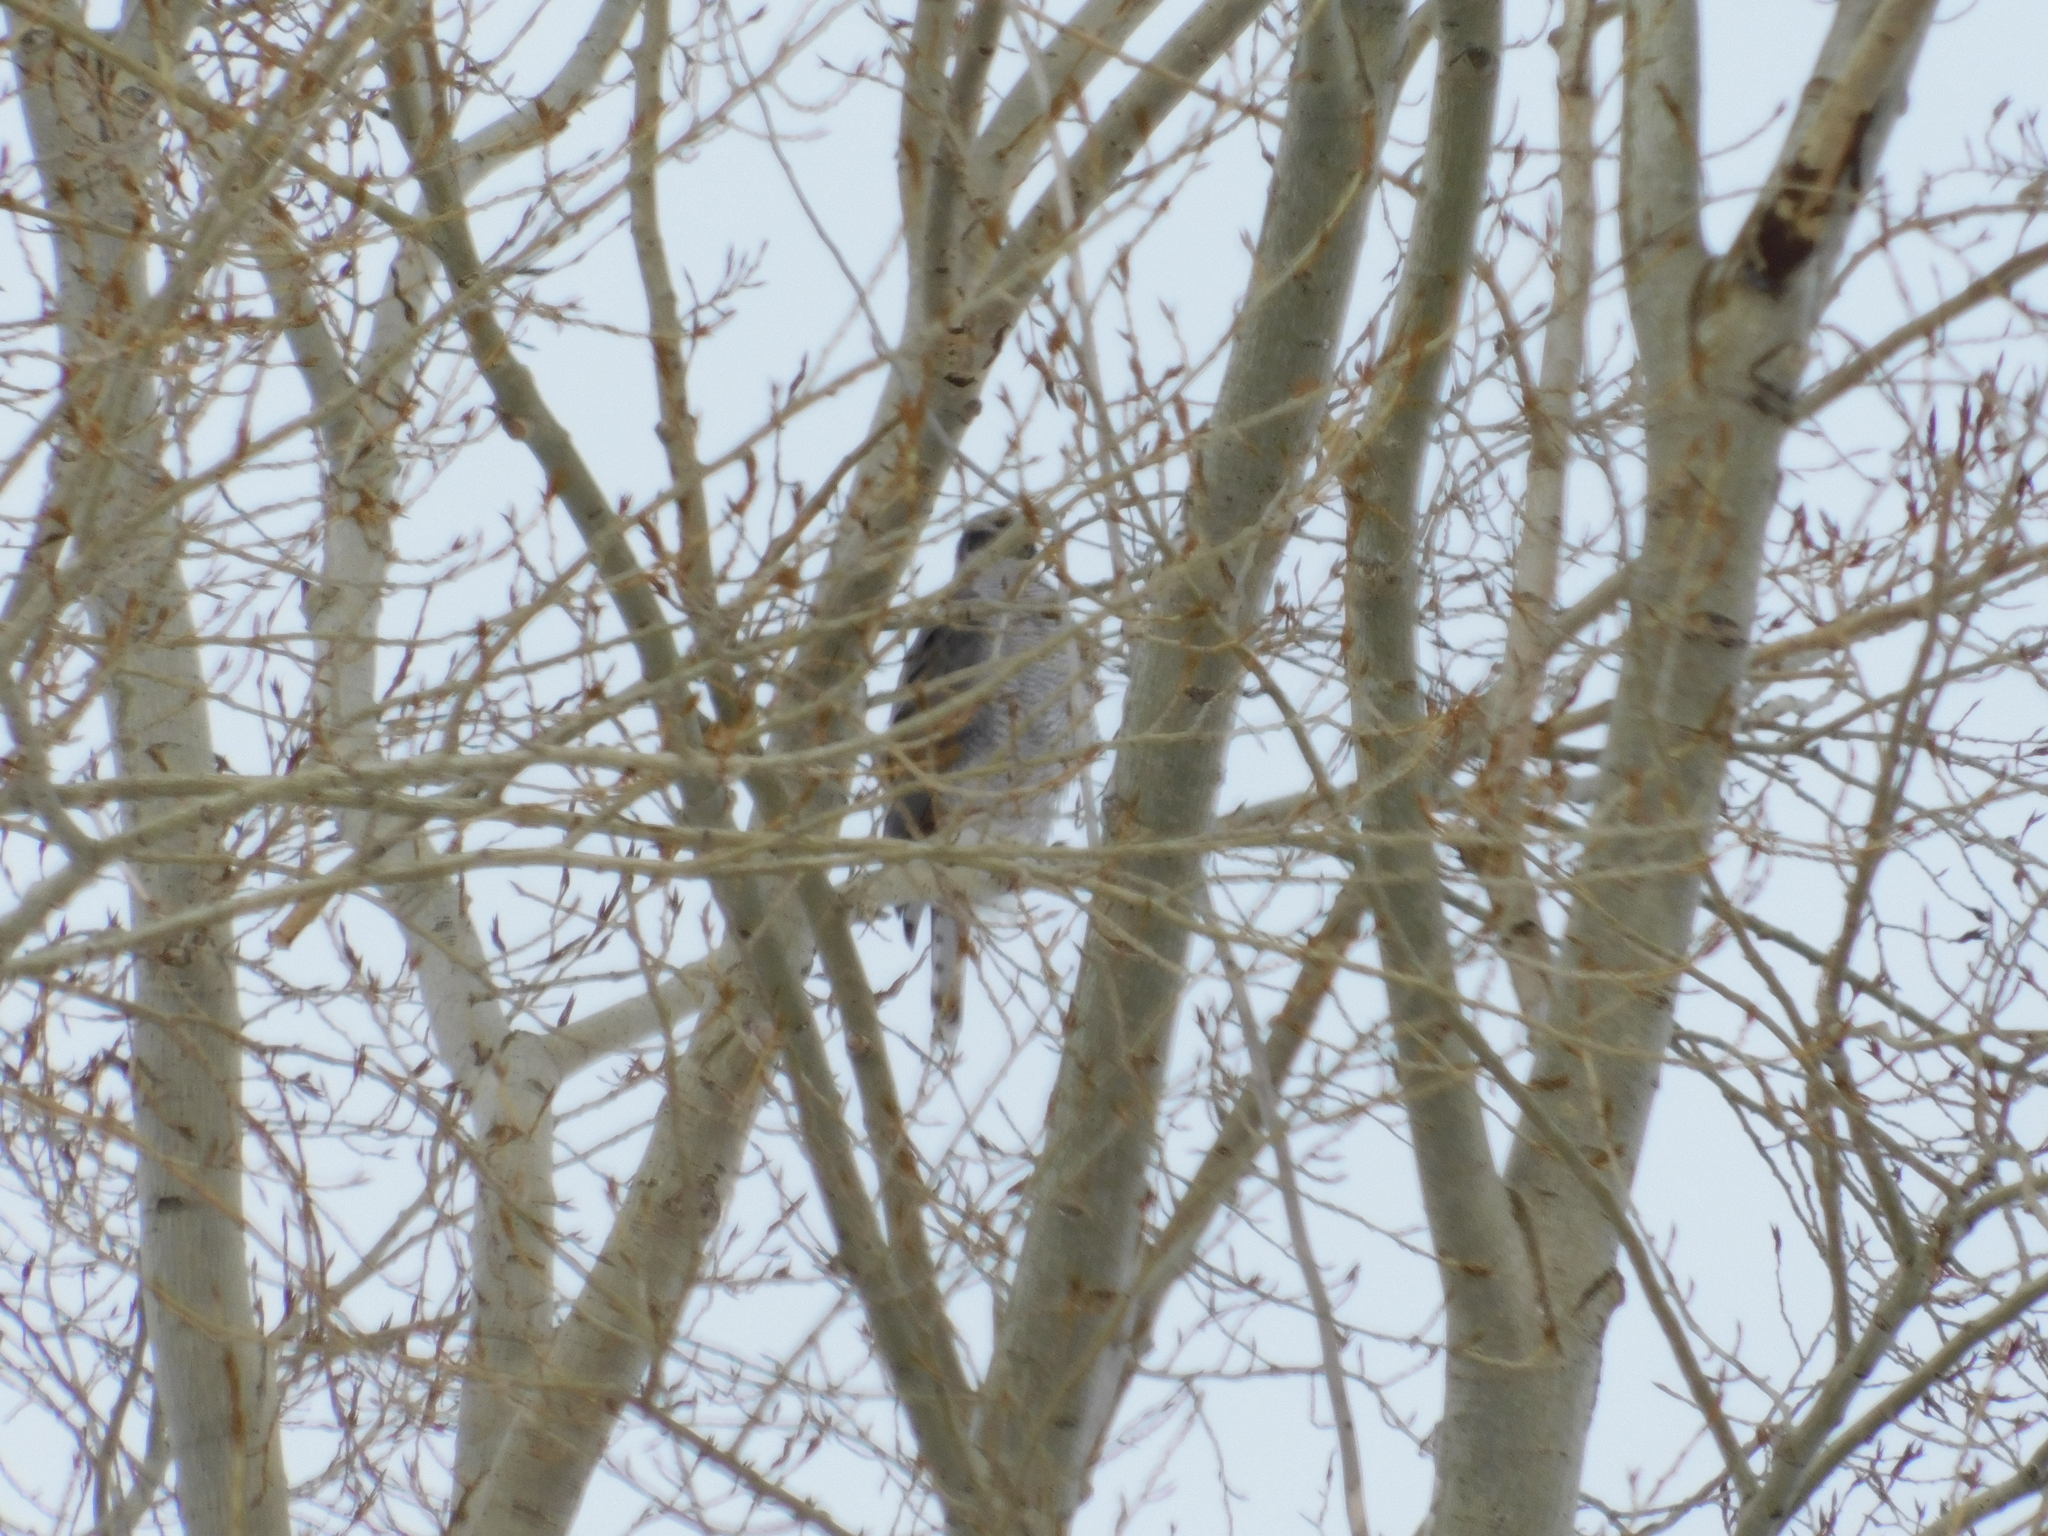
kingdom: Animalia
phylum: Chordata
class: Aves
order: Accipitriformes
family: Accipitridae
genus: Accipiter
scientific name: Accipiter gentilis
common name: Northern goshawk
